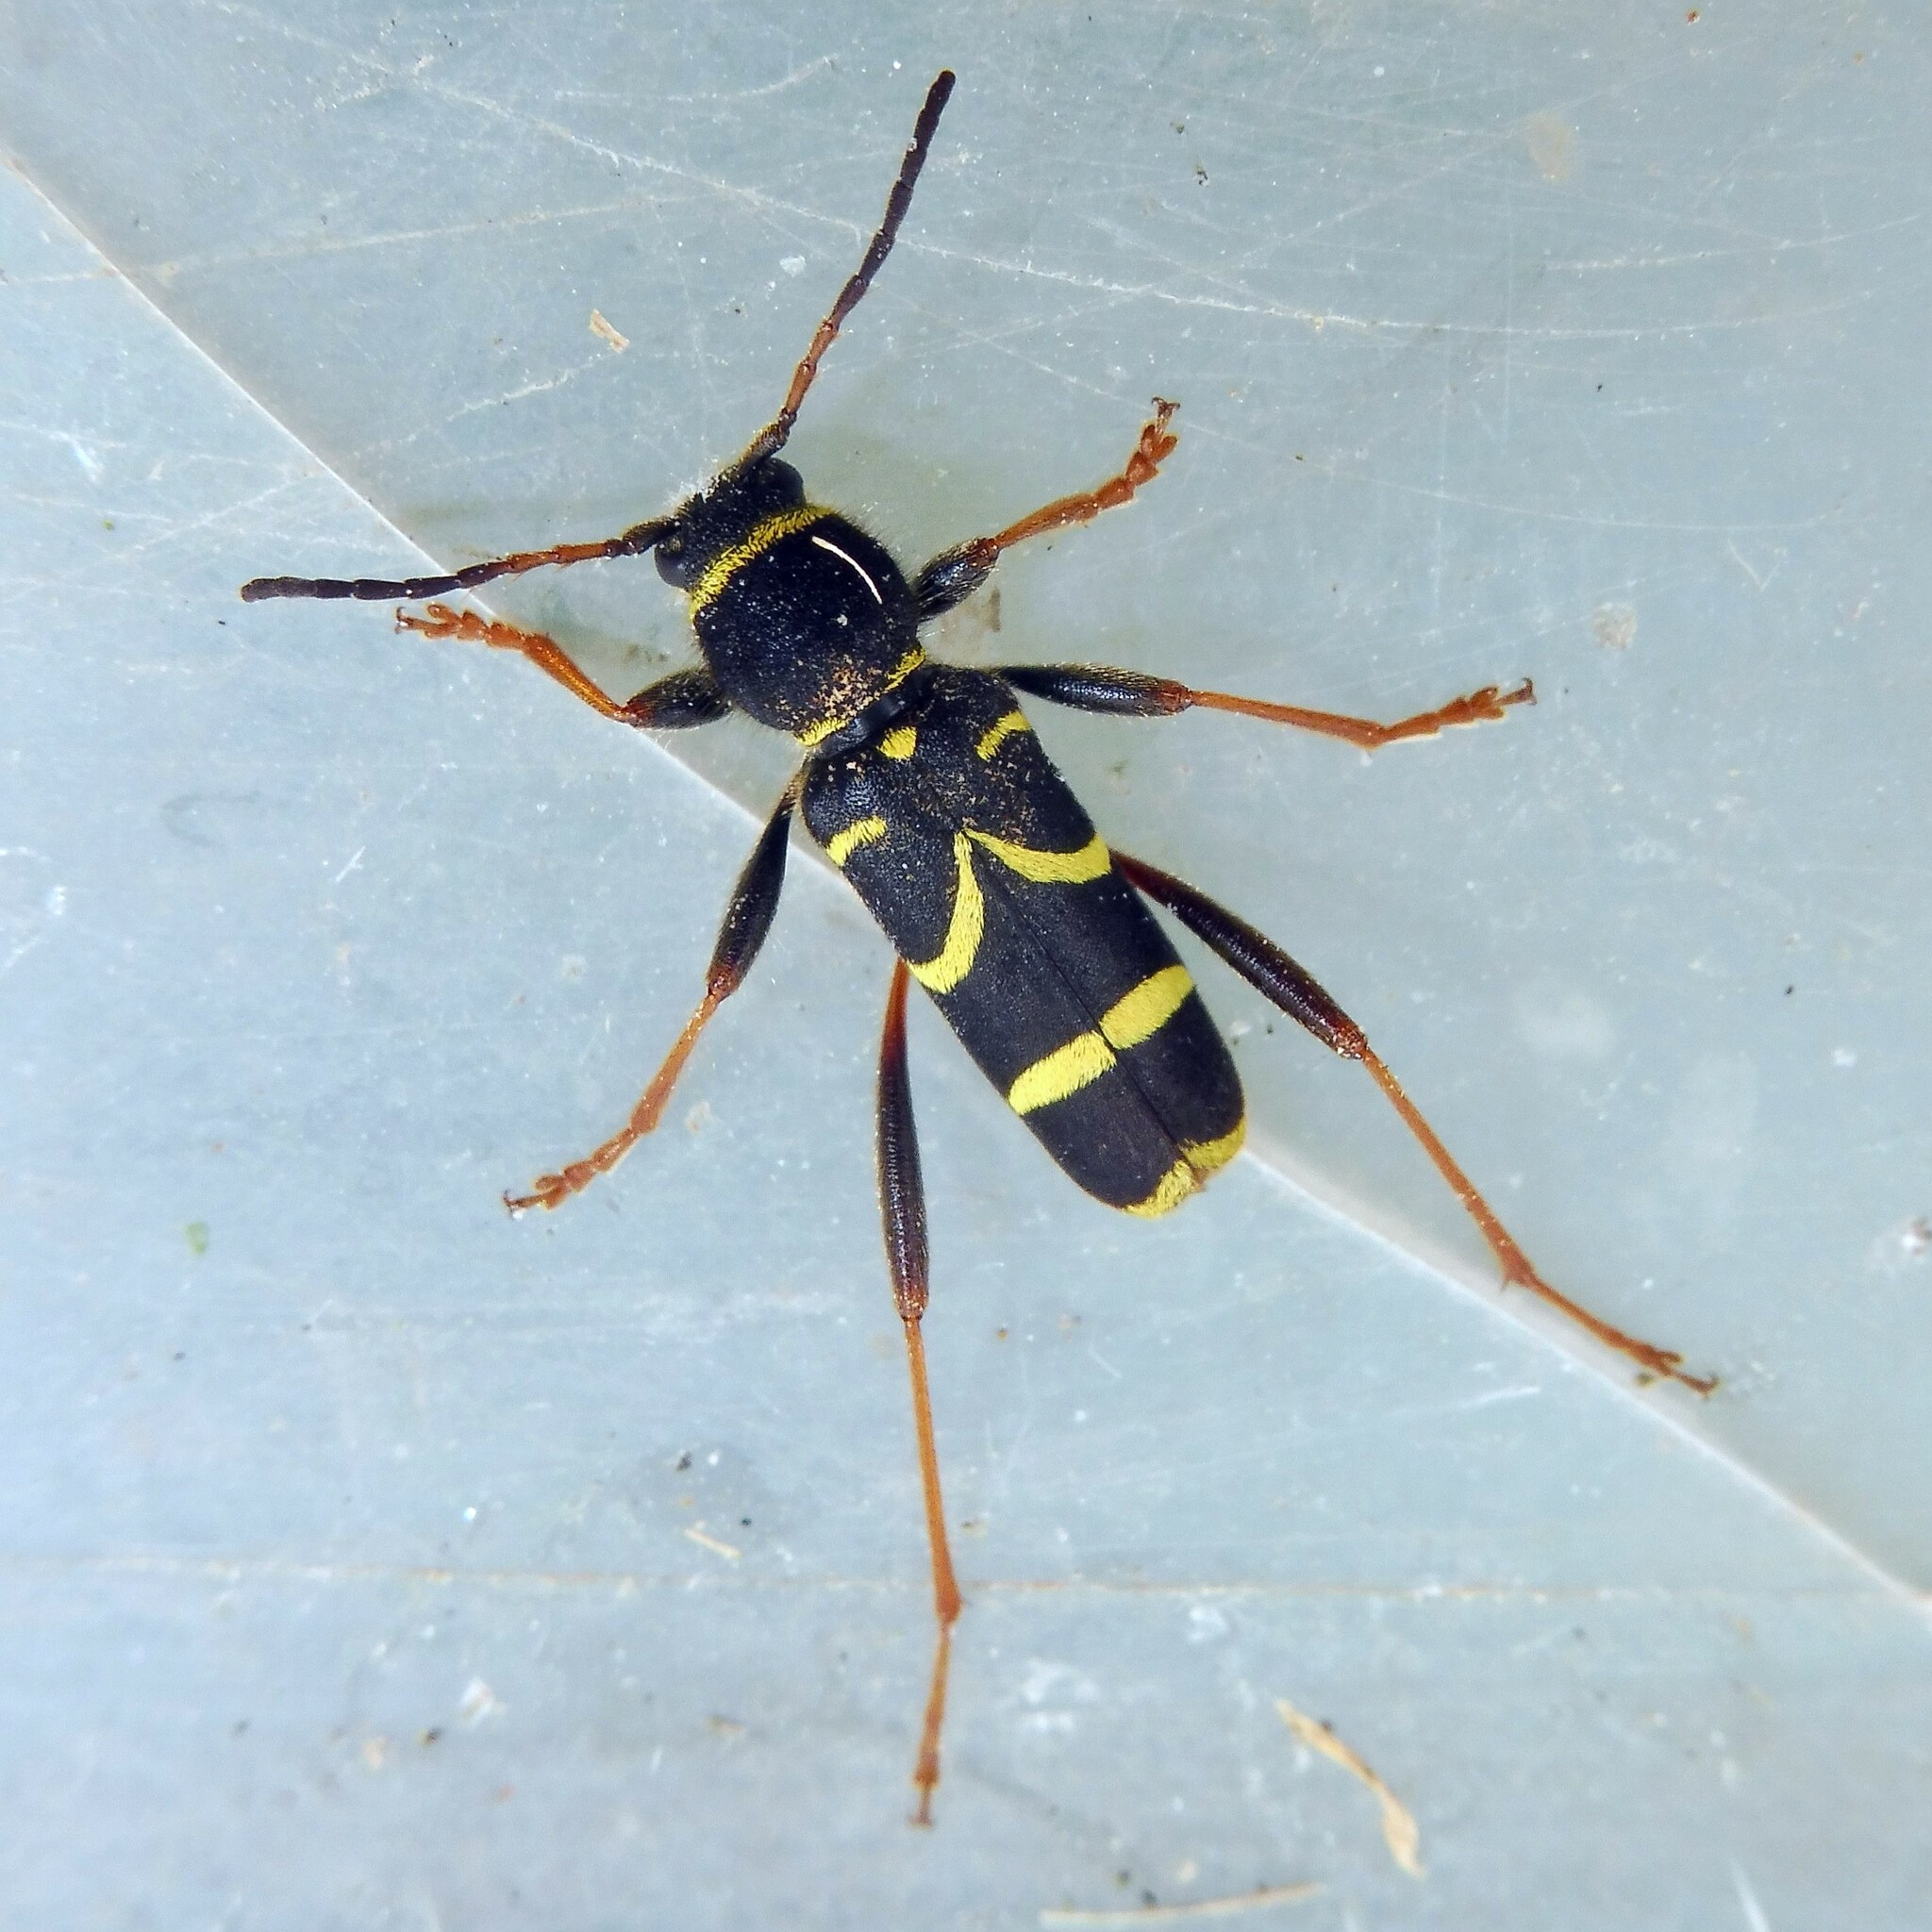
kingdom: Animalia
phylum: Arthropoda
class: Insecta
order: Coleoptera
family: Cerambycidae
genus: Clytus
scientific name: Clytus arietis
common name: Wasp beetle
